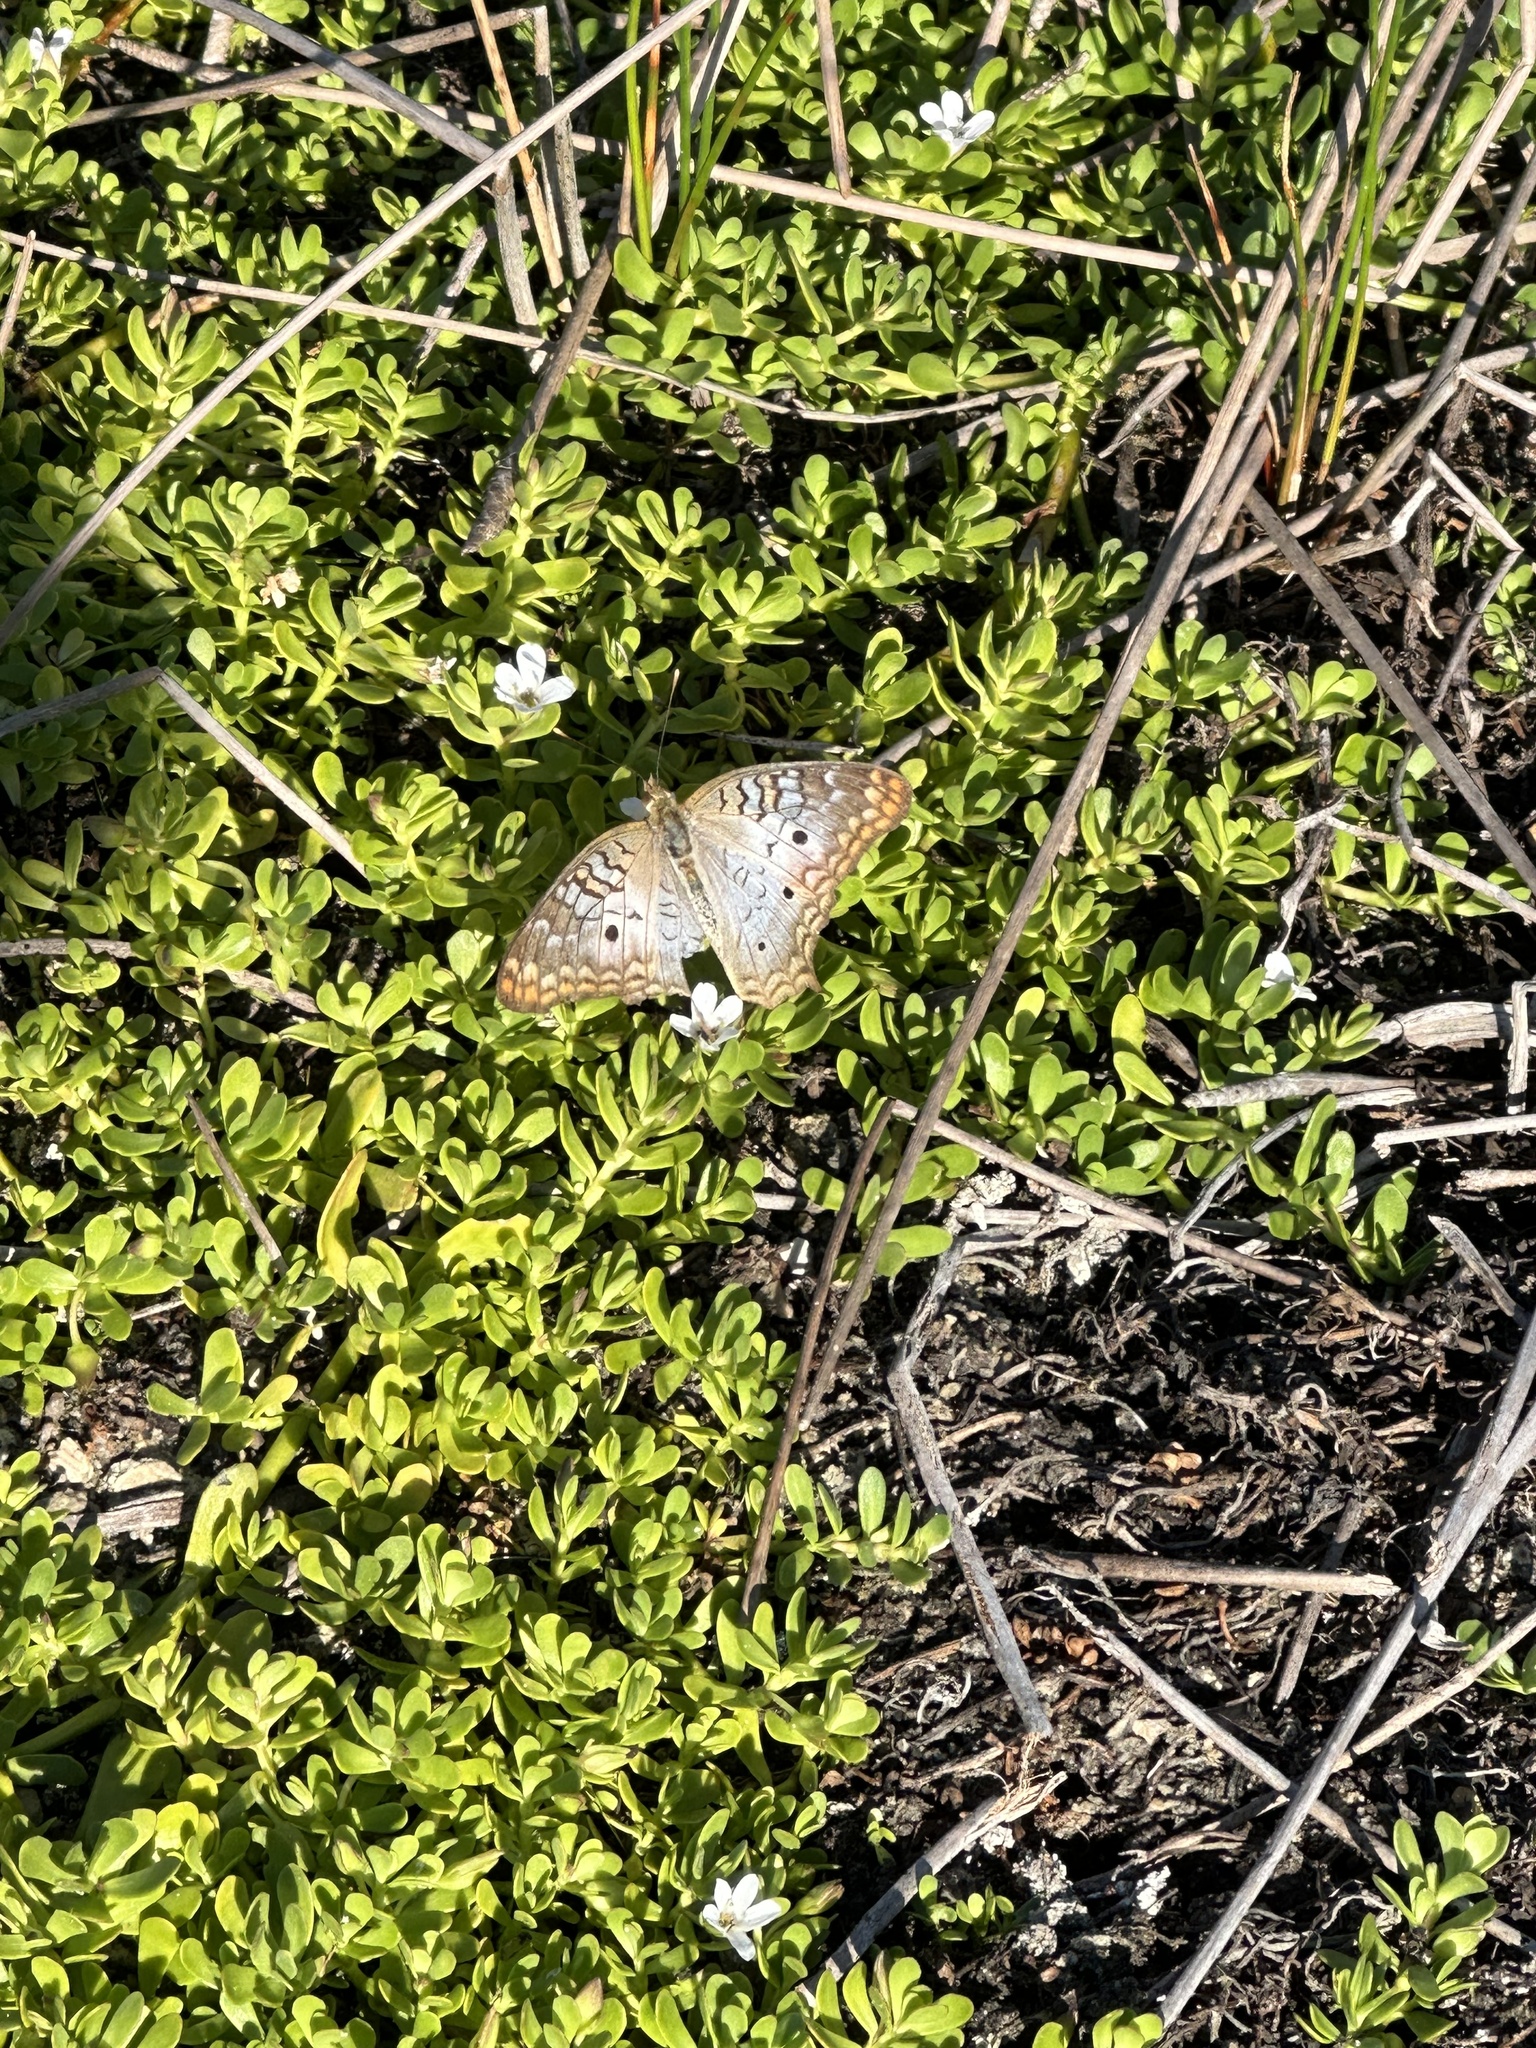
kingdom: Animalia
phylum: Arthropoda
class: Insecta
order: Lepidoptera
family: Nymphalidae
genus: Anartia
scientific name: Anartia jatrophae
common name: White peacock
